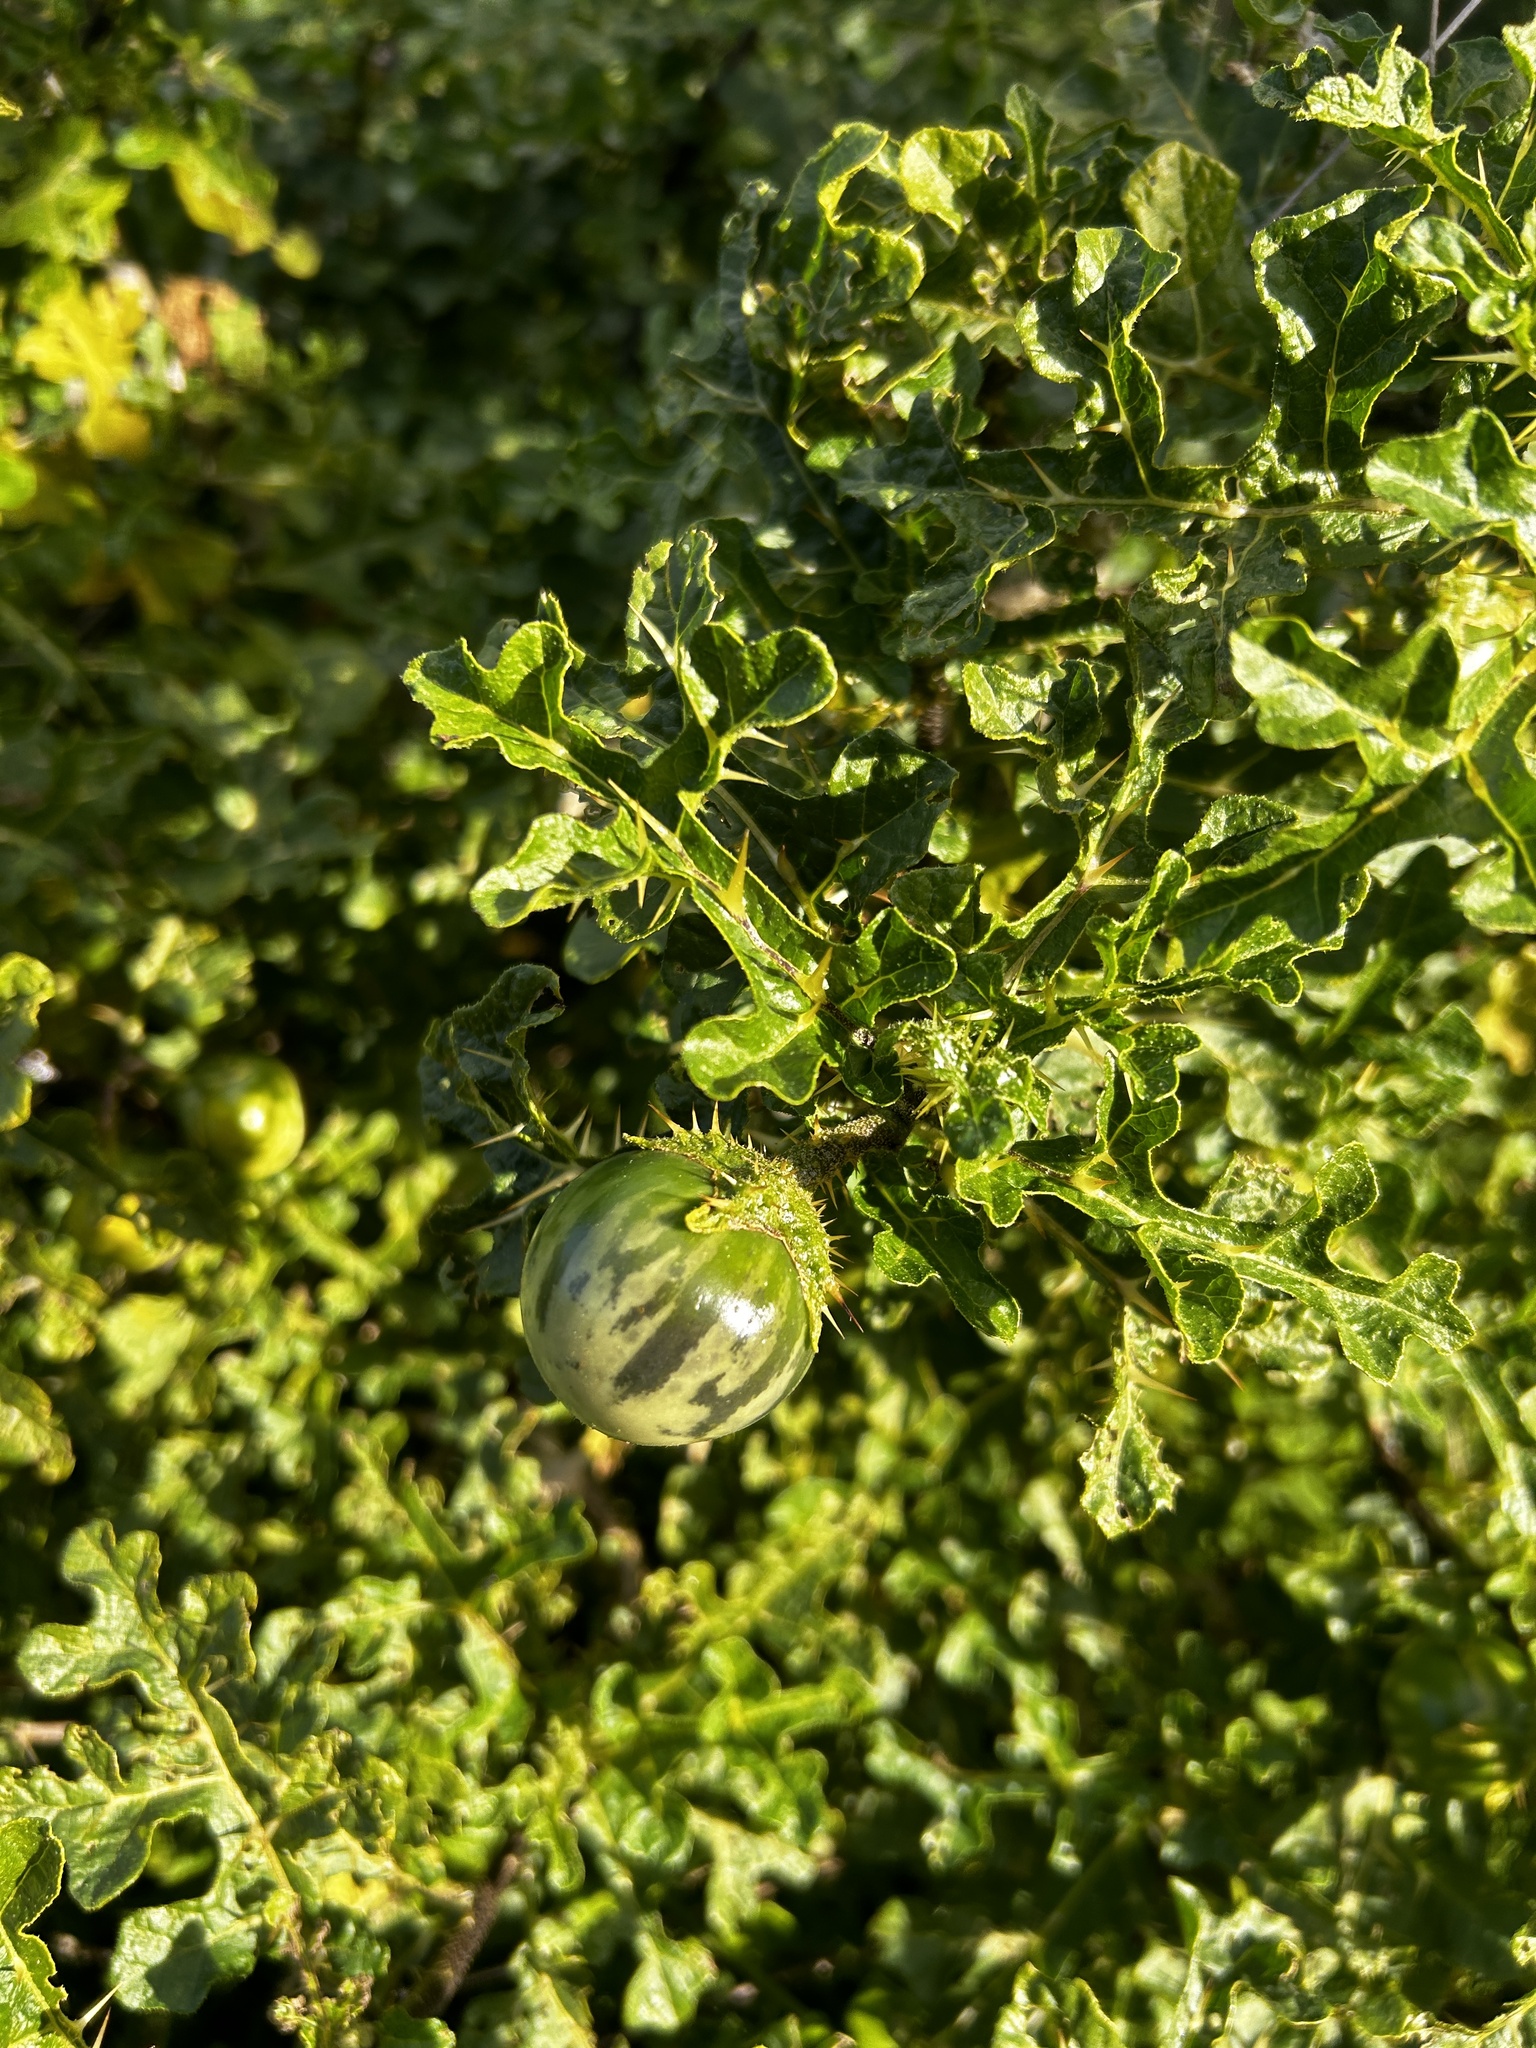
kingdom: Plantae
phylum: Tracheophyta
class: Magnoliopsida
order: Solanales
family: Solanaceae
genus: Solanum
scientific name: Solanum linnaeanum
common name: Nightshade
